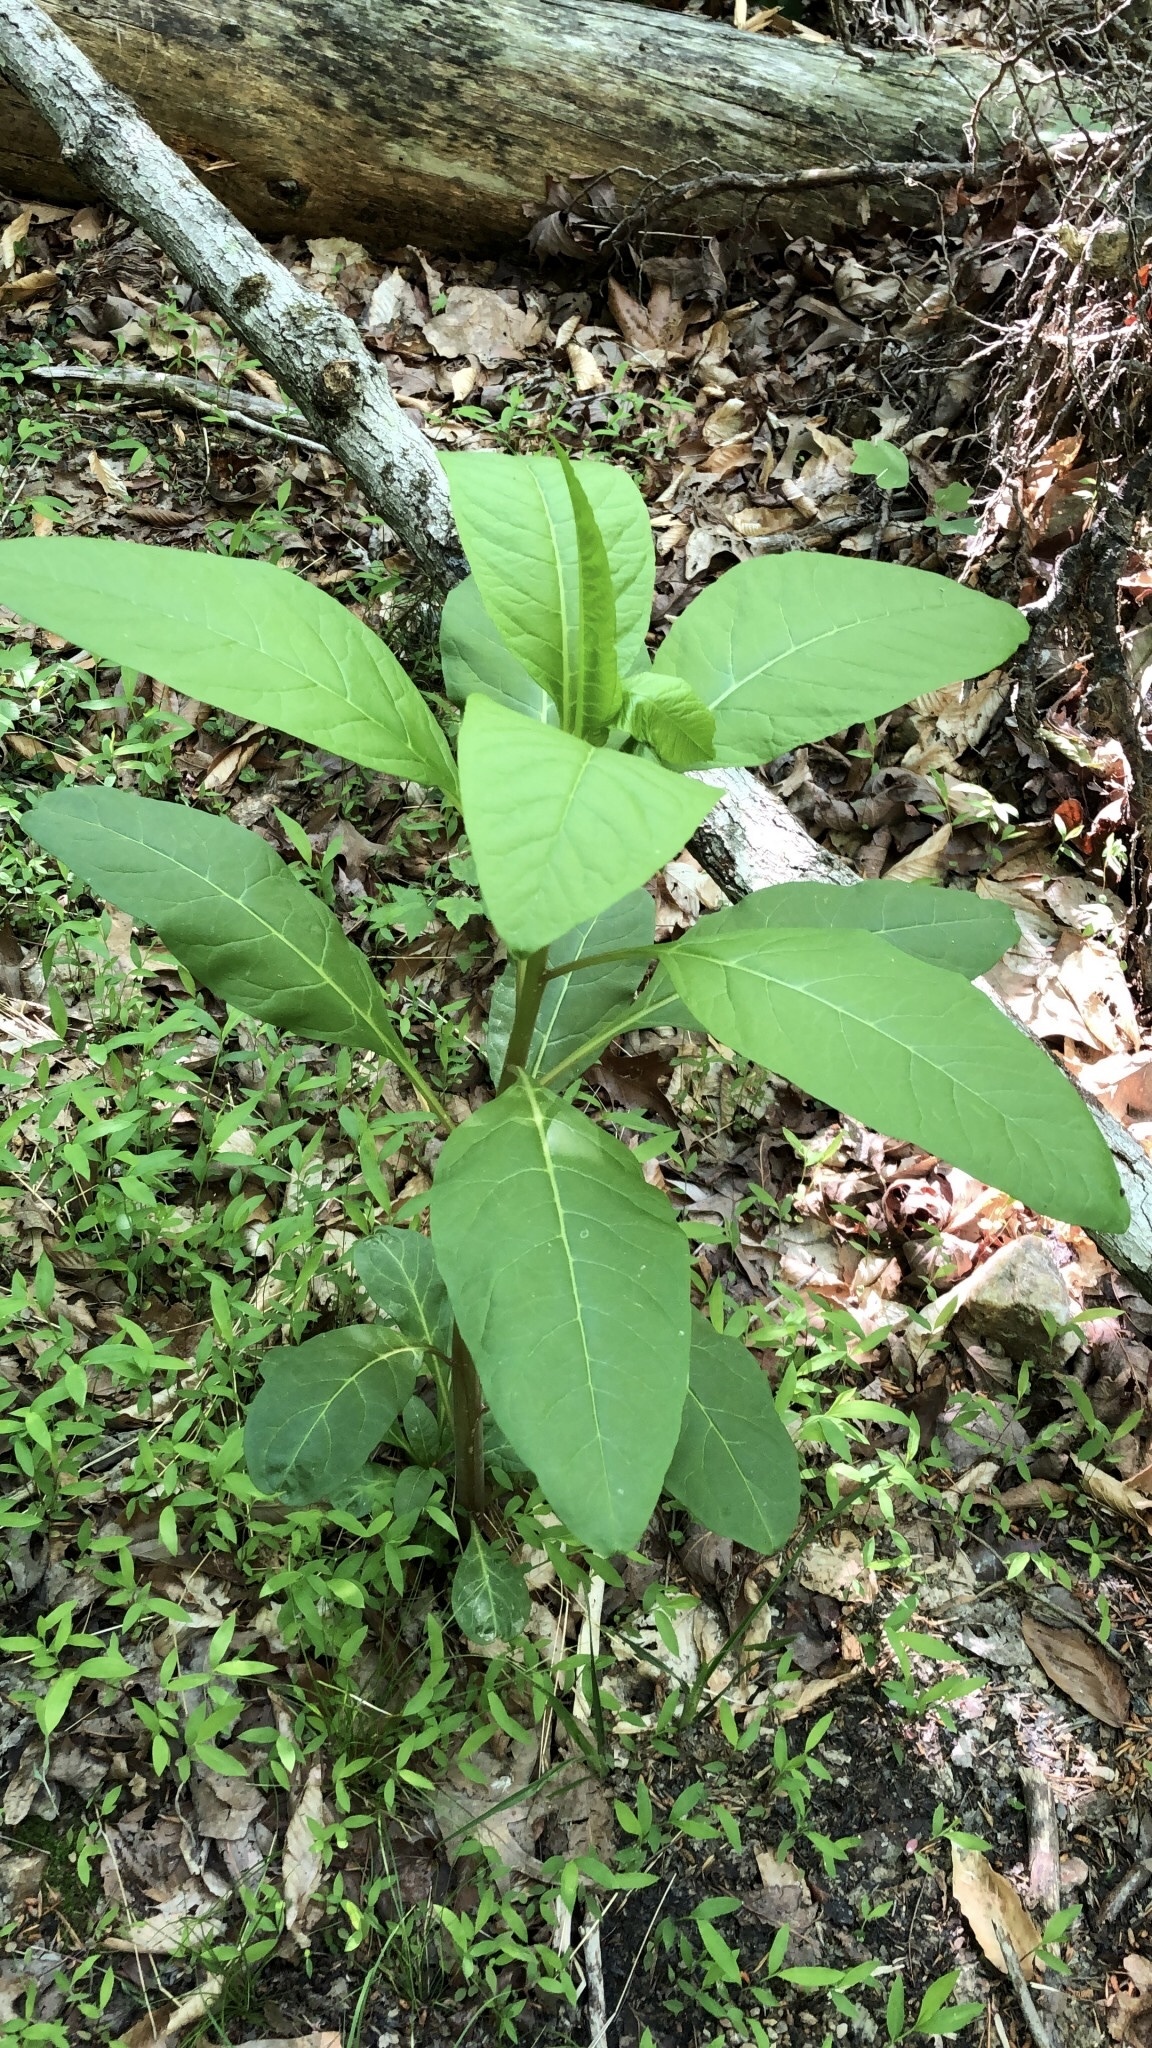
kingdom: Plantae
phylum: Tracheophyta
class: Magnoliopsida
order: Caryophyllales
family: Phytolaccaceae
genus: Phytolacca
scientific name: Phytolacca americana
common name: American pokeweed
